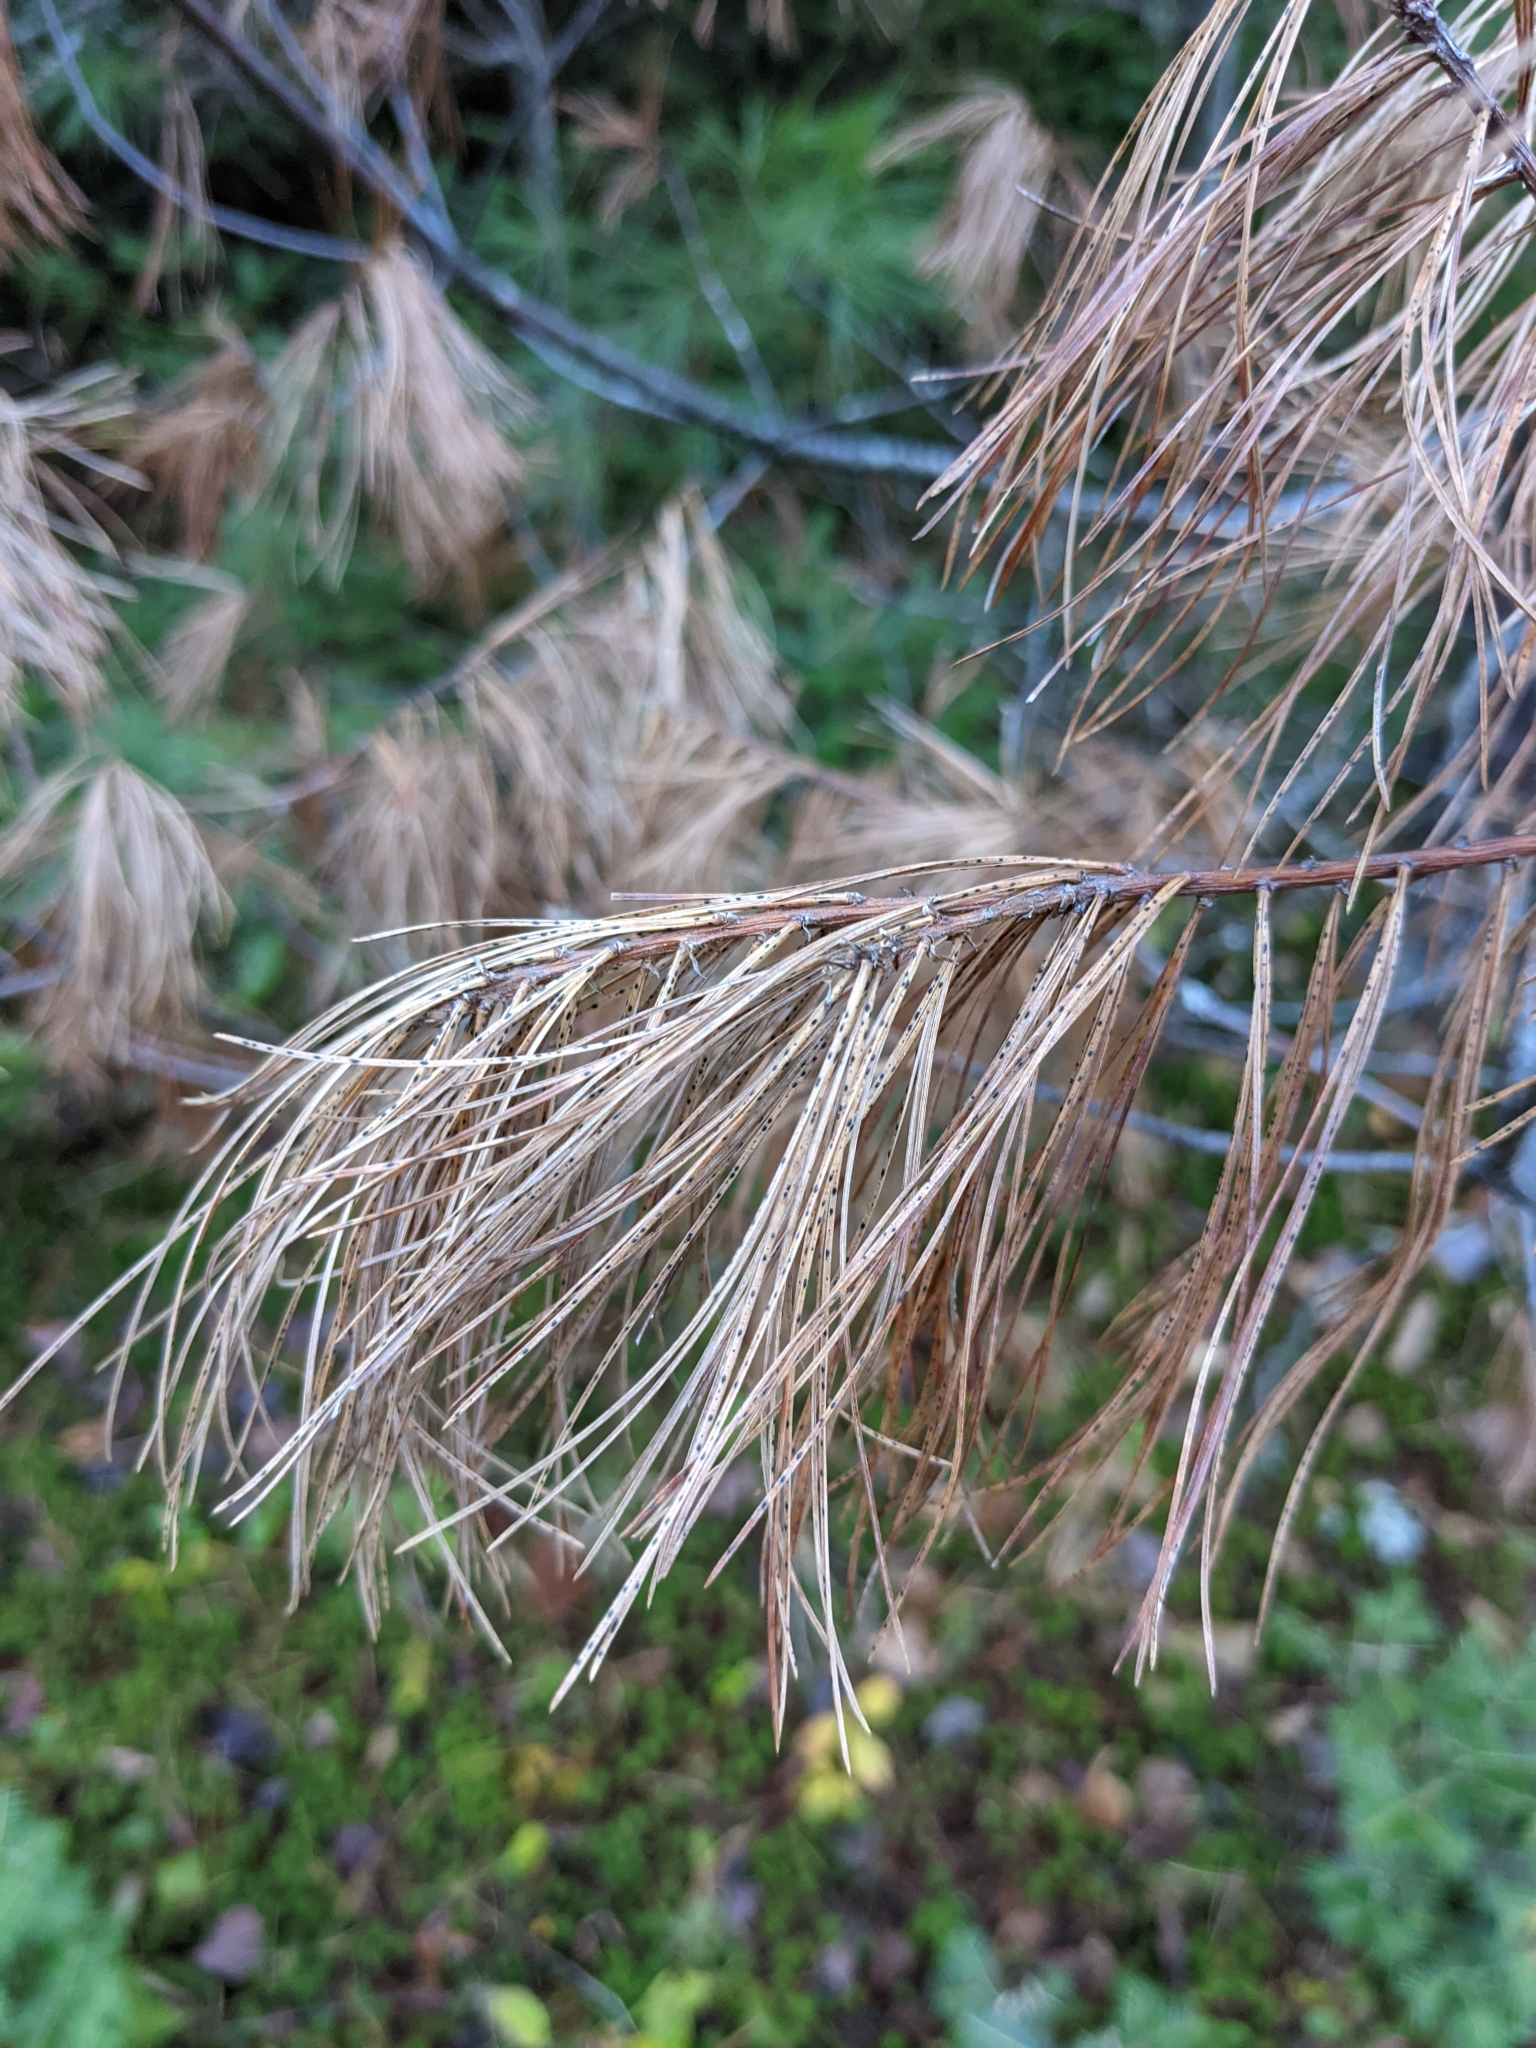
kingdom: Plantae
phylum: Tracheophyta
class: Pinopsida
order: Pinales
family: Pinaceae
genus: Pinus
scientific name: Pinus strobus
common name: Weymouth pine
